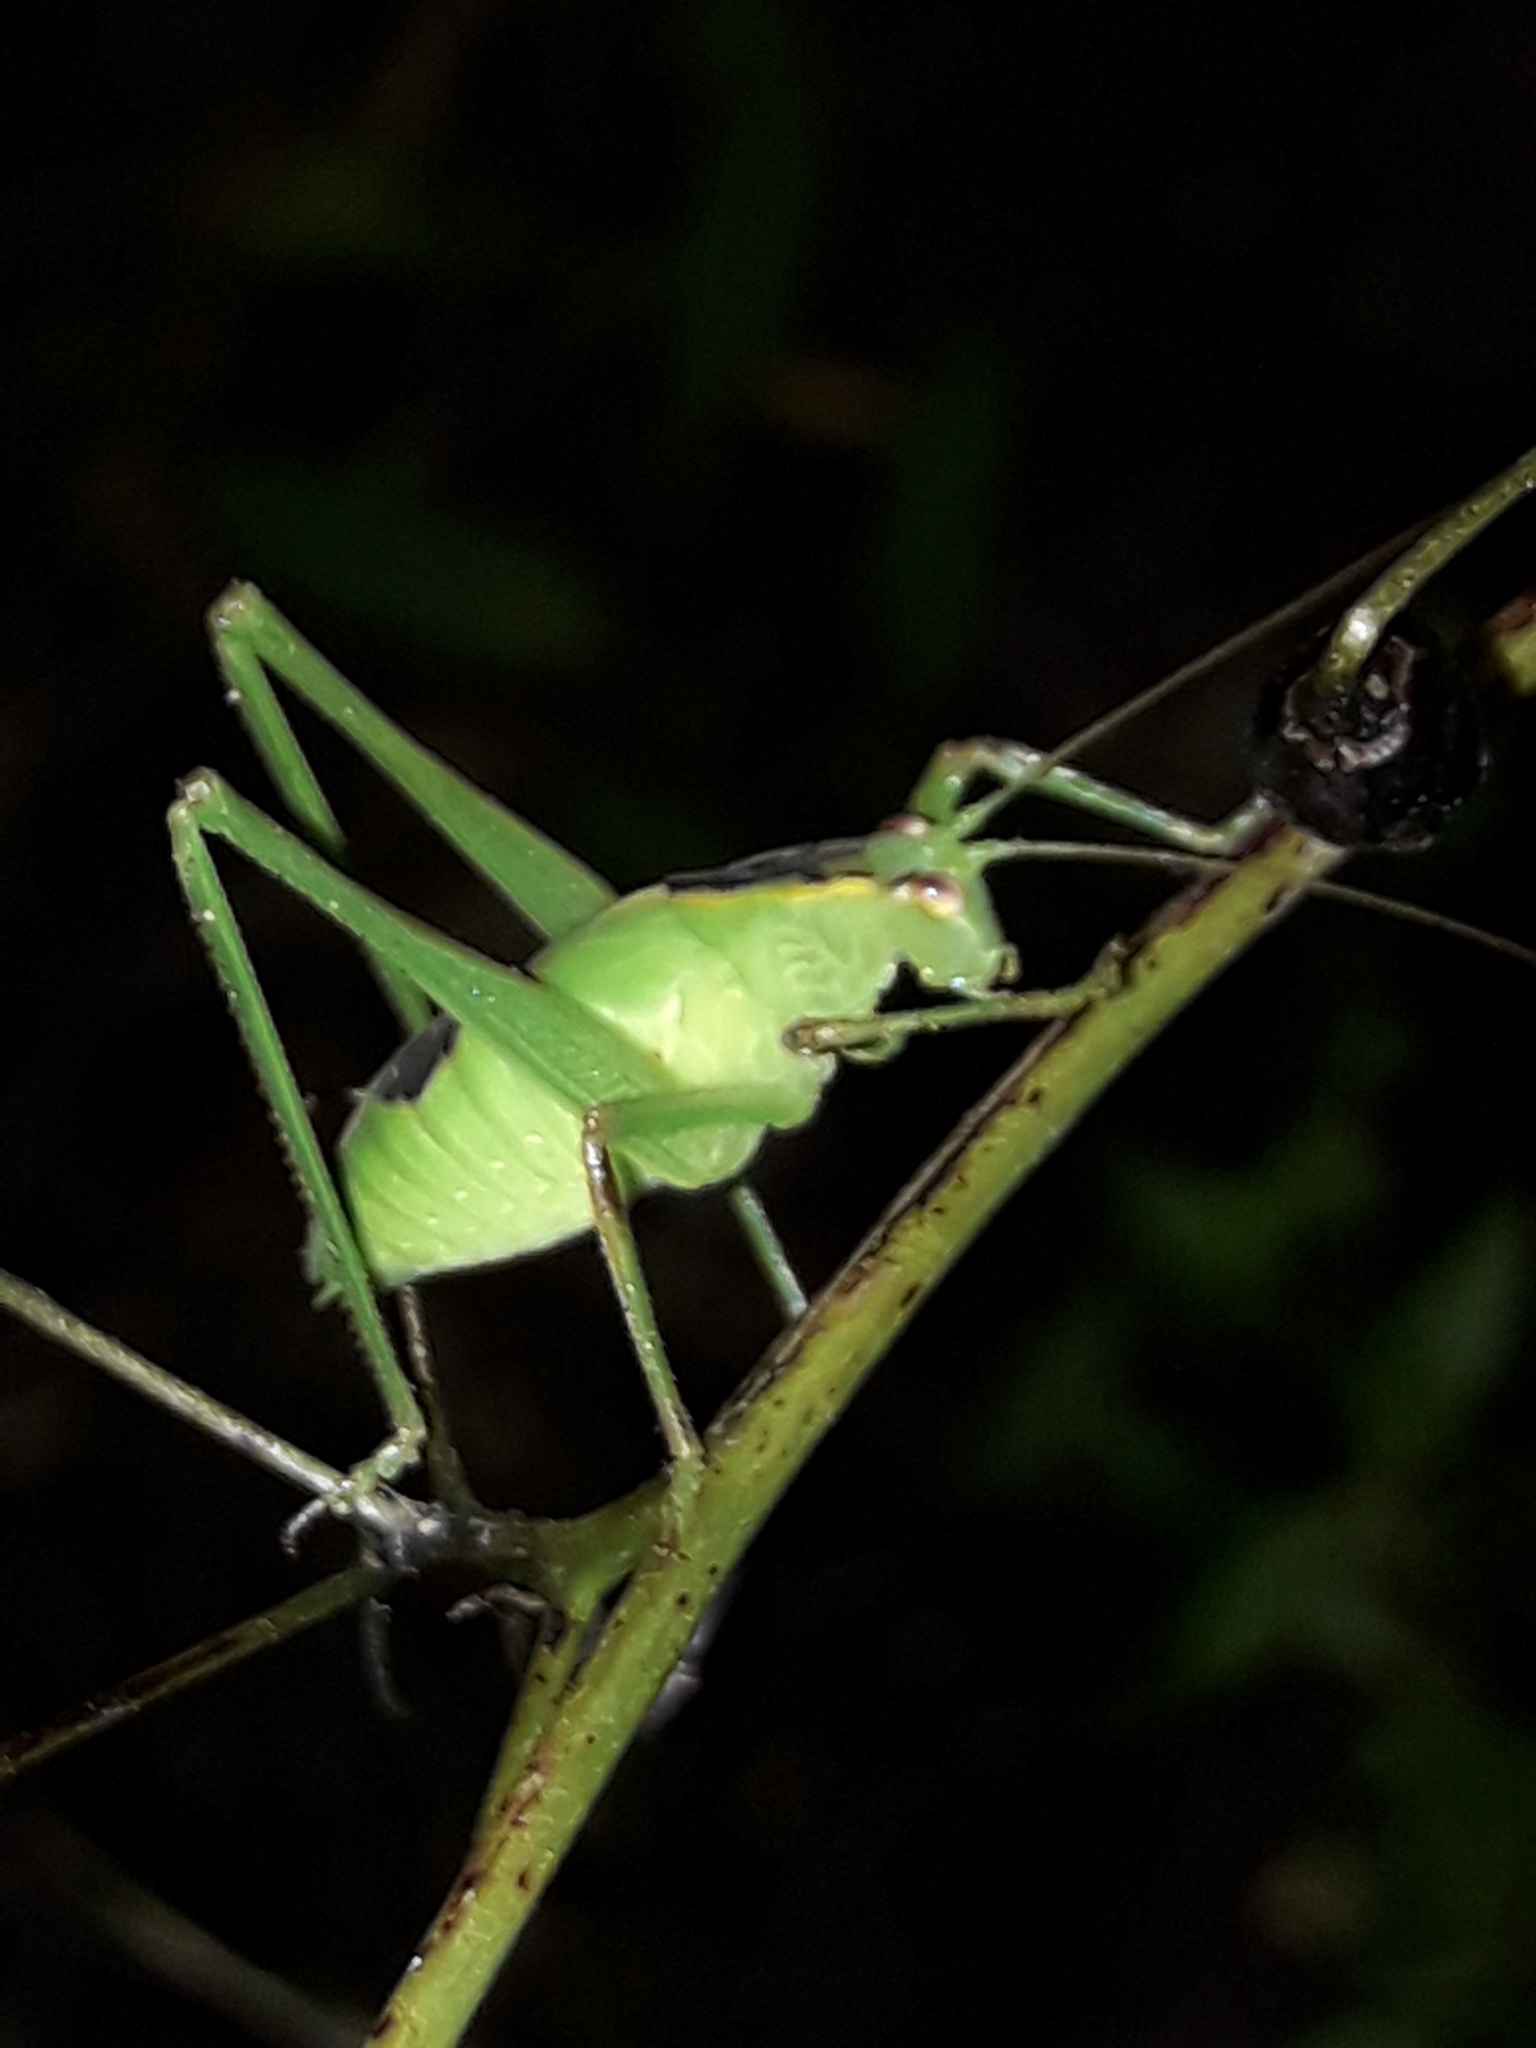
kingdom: Animalia
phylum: Arthropoda
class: Insecta
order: Orthoptera
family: Tettigoniidae
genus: Caedicia
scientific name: Caedicia simplex
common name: Common garden katydid
